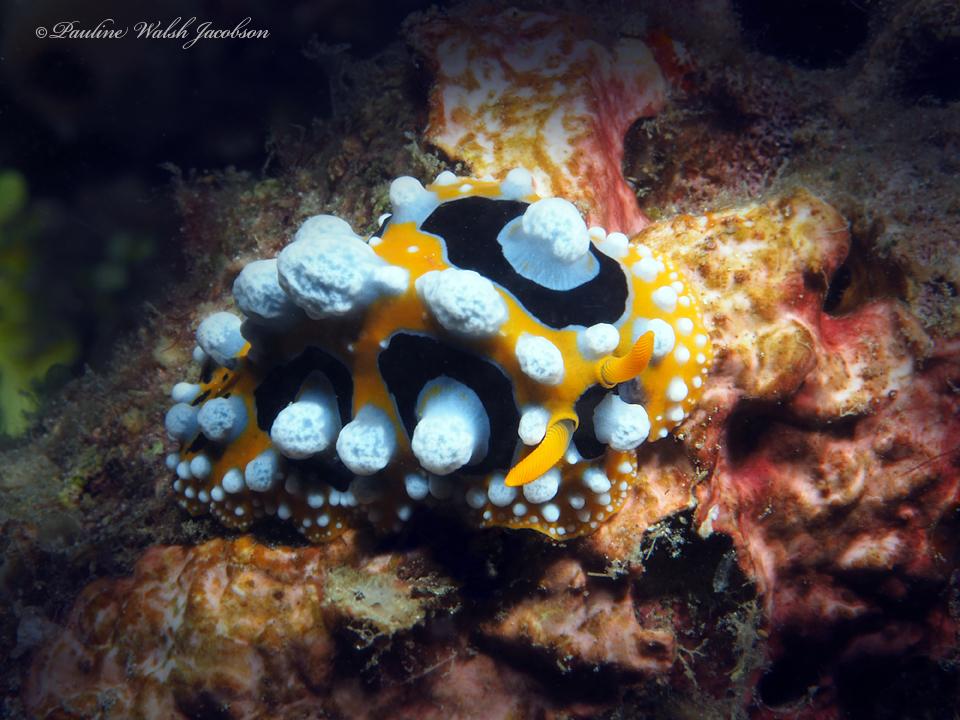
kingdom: Animalia
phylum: Mollusca
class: Gastropoda
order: Nudibranchia
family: Phyllidiidae
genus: Phyllidia
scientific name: Phyllidia ocellata
